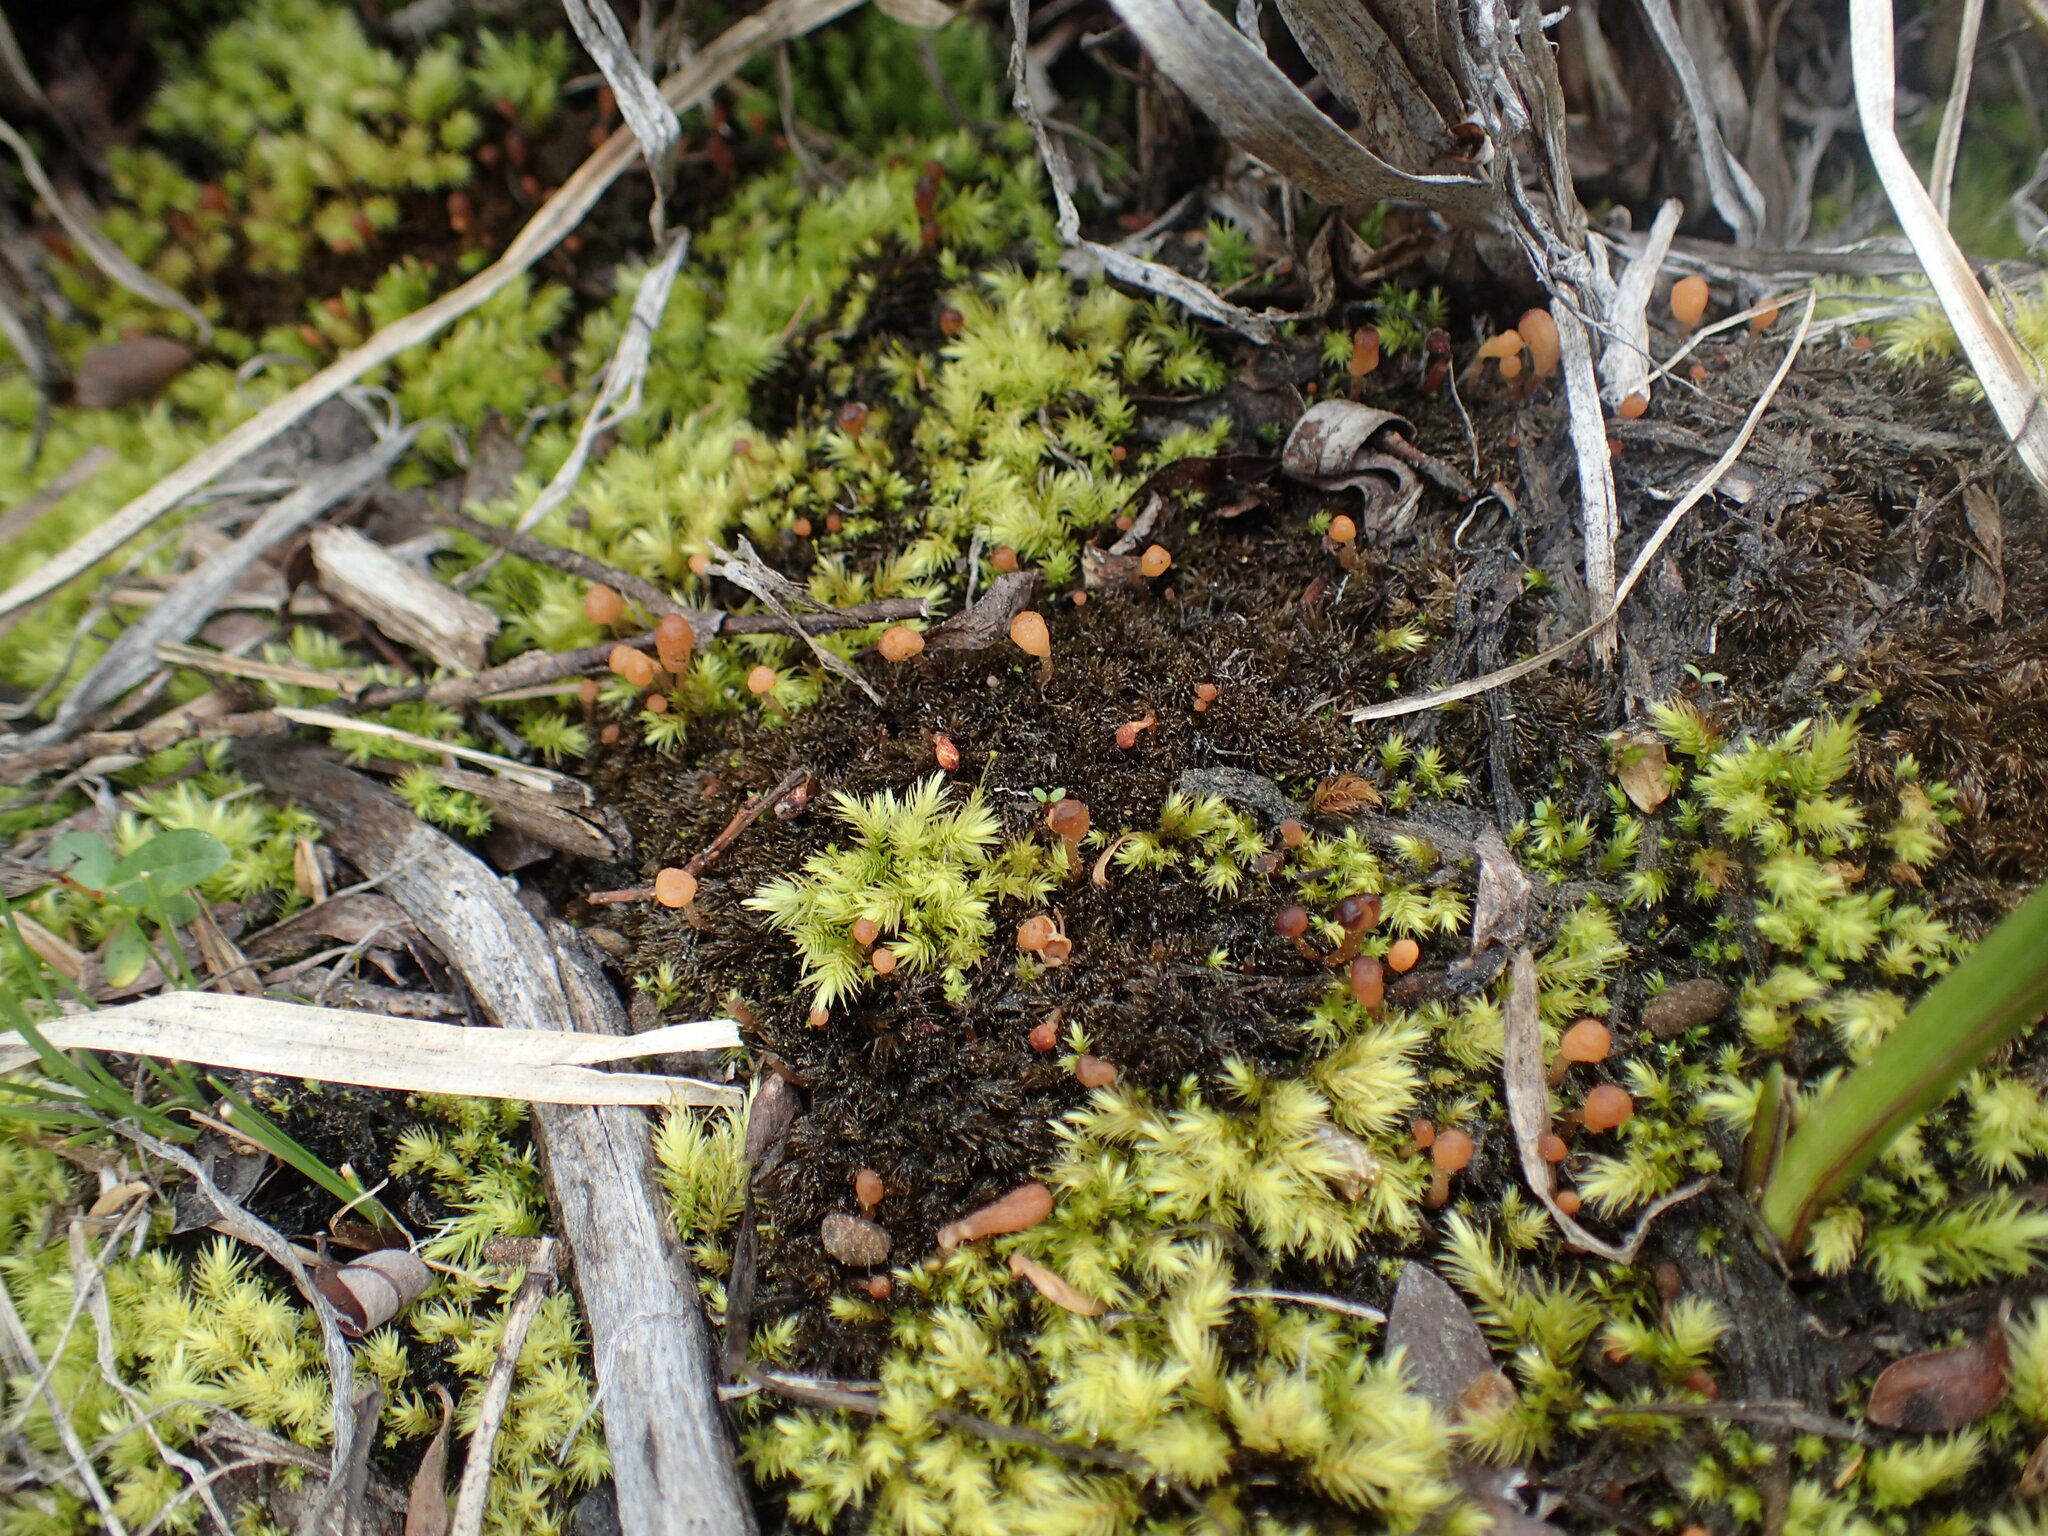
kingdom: Fungi
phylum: Ascomycota
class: Leotiomycetes
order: Helotiales
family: Bryoglossaceae
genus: Bryoglossum
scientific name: Bryoglossum gracile
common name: Fringed sawgill
